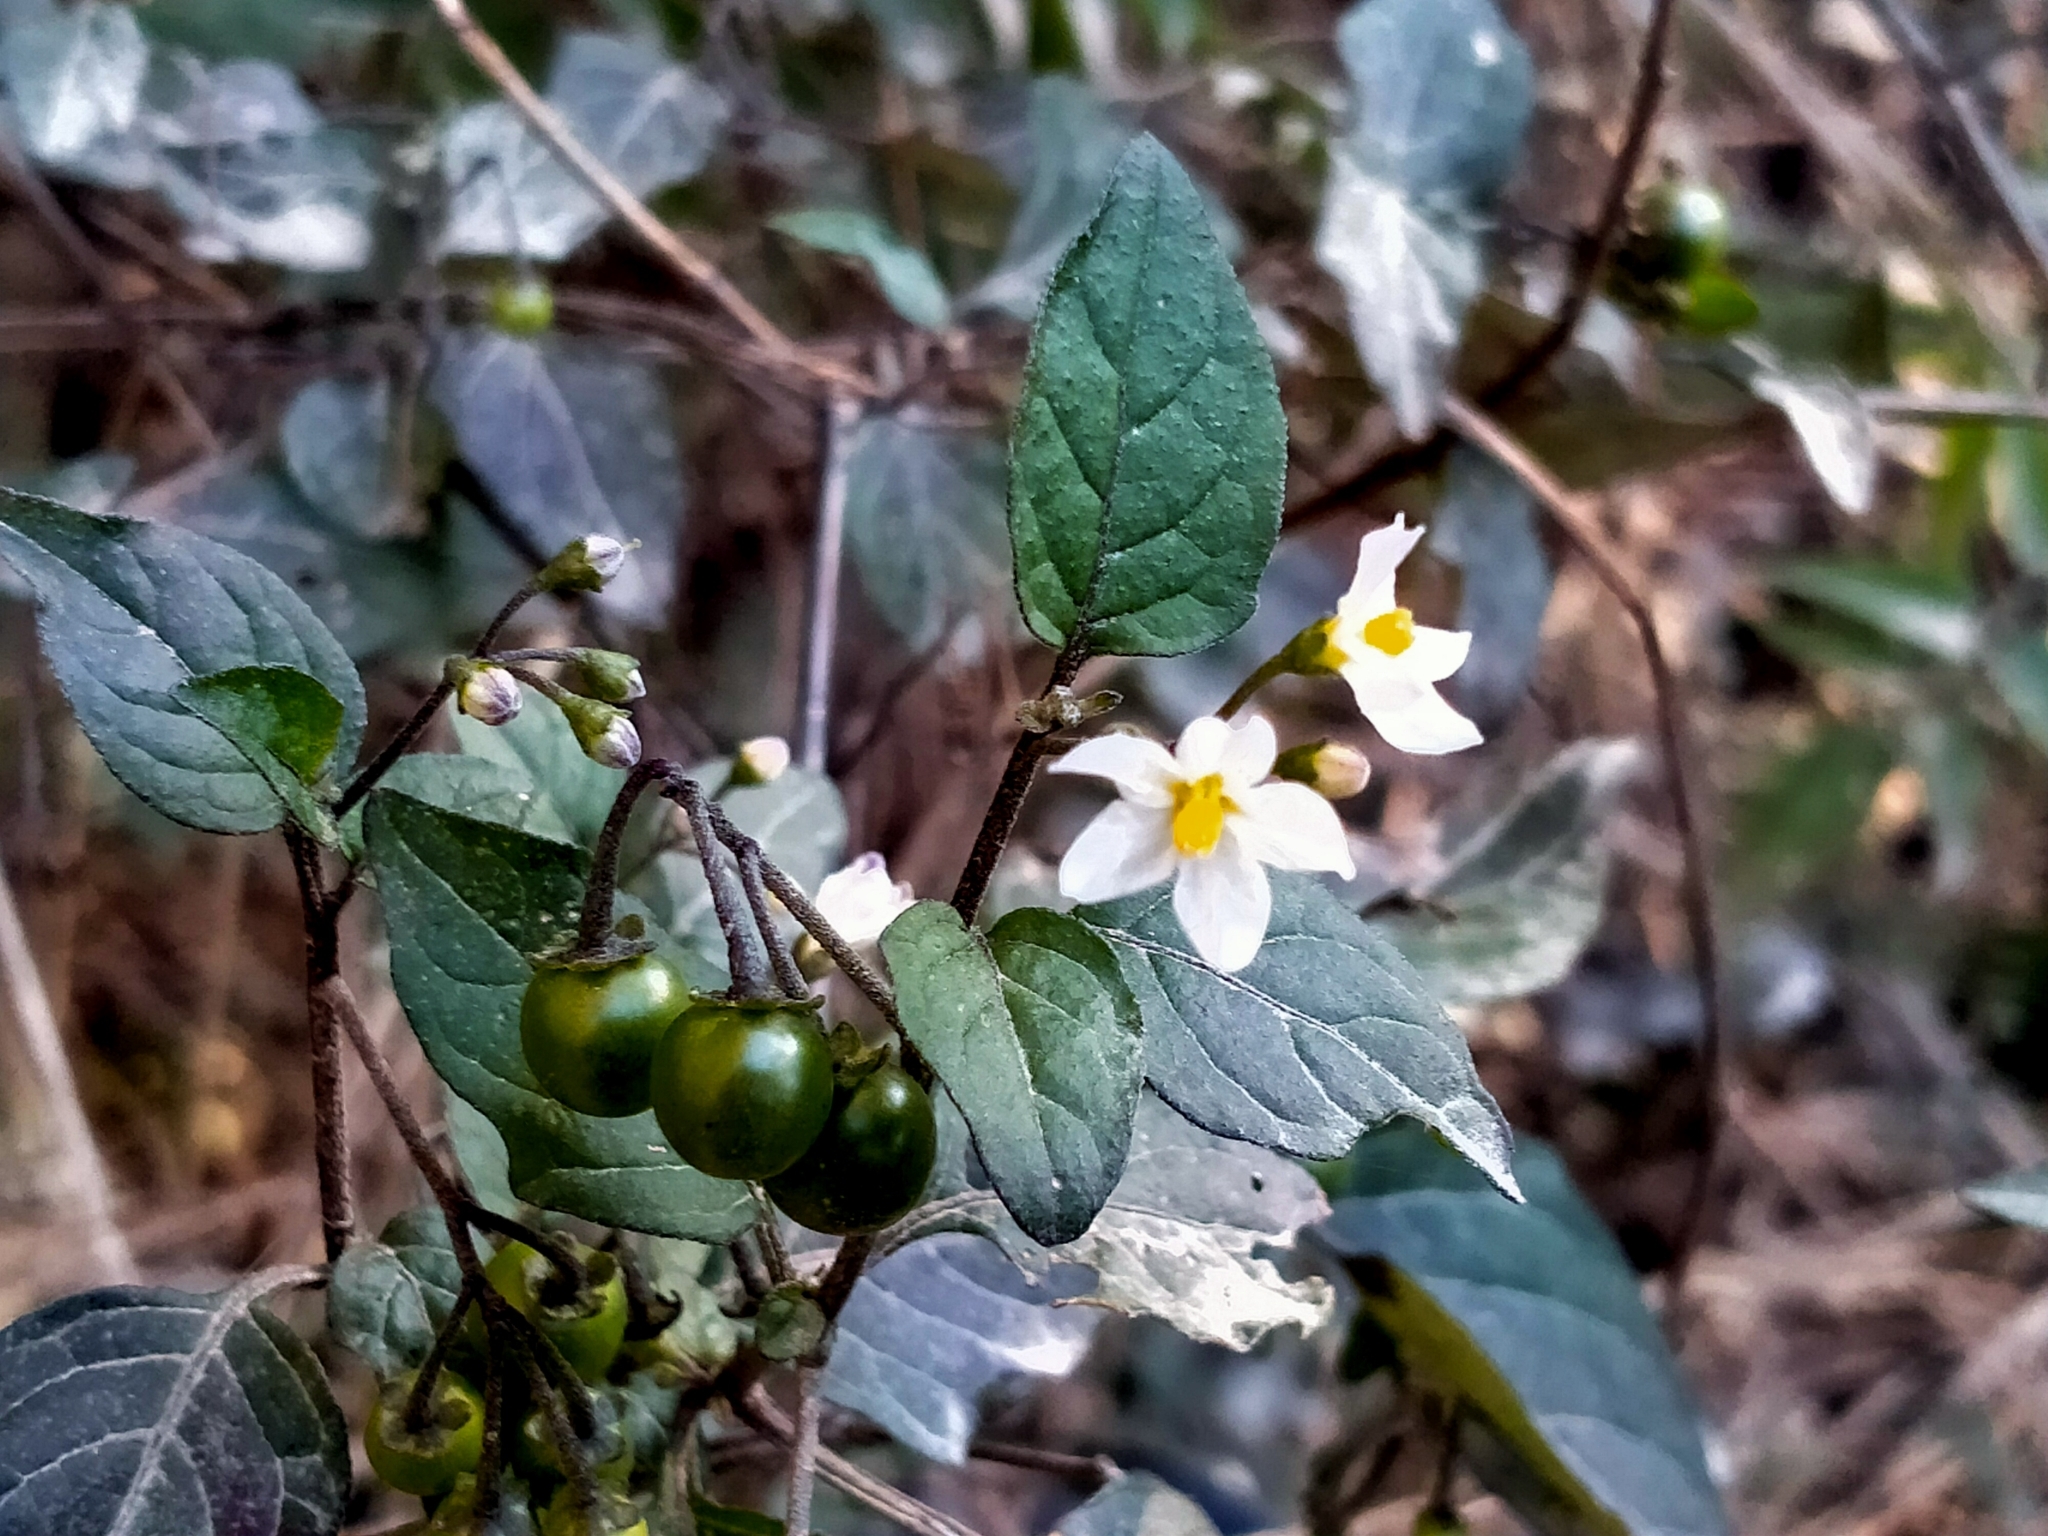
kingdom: Plantae
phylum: Tracheophyta
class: Magnoliopsida
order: Solanales
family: Solanaceae
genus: Solanum
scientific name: Solanum nigrum
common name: Black nightshade
